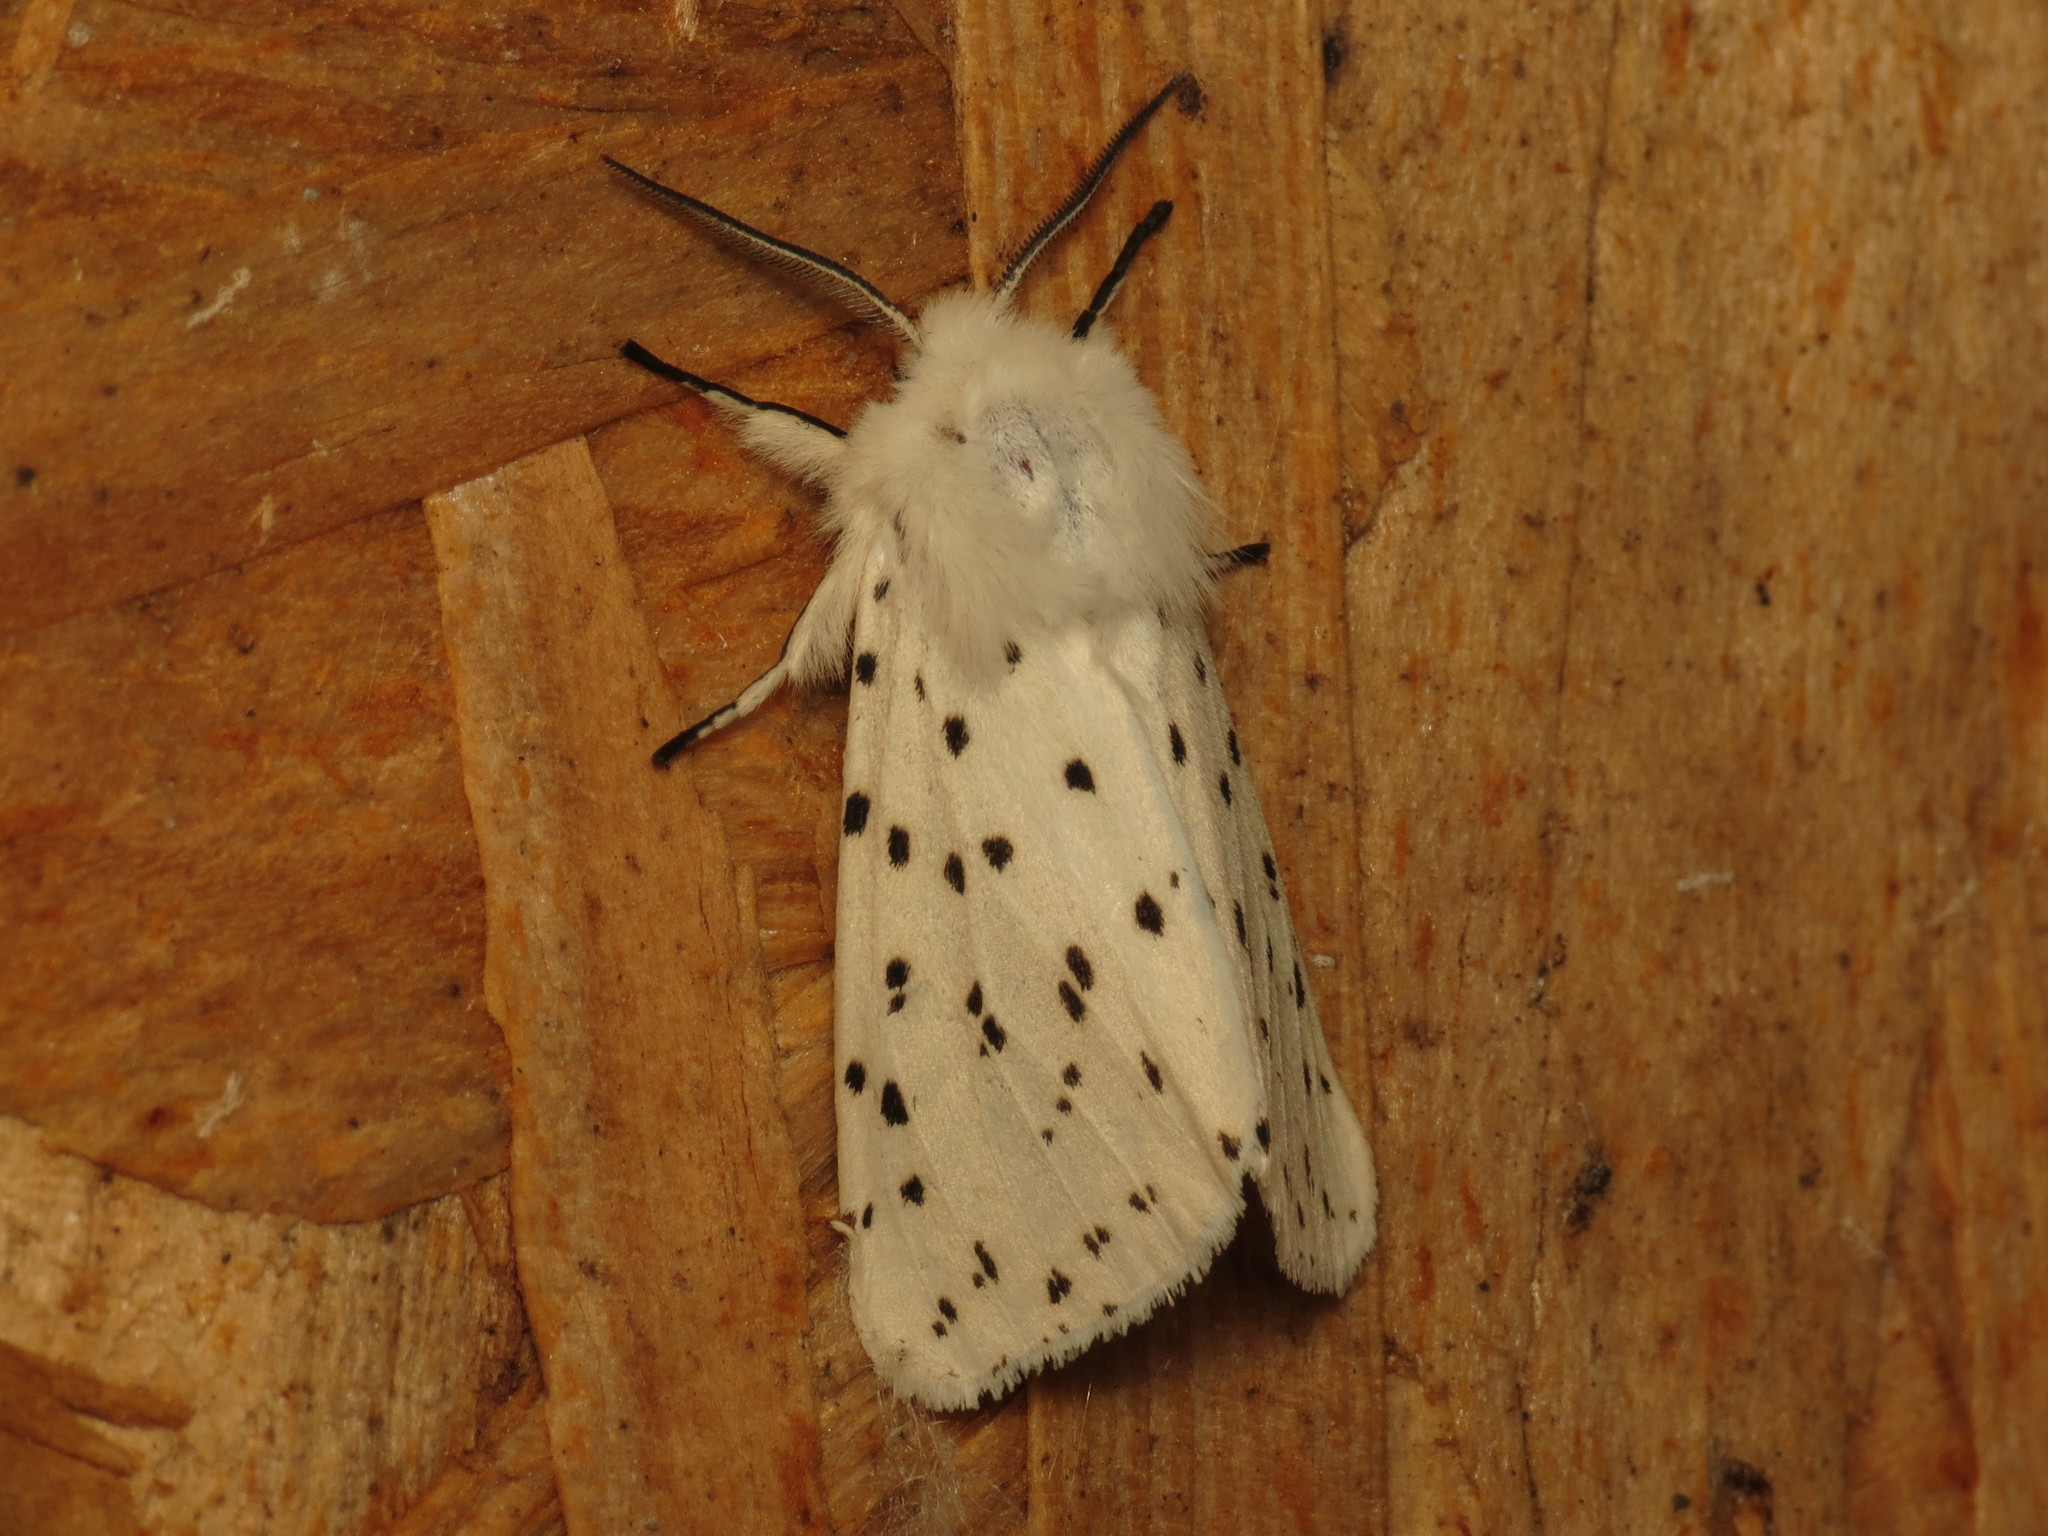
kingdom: Animalia
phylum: Arthropoda
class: Insecta
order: Lepidoptera
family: Erebidae
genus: Spilosoma
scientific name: Spilosoma lubricipeda
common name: White ermine
